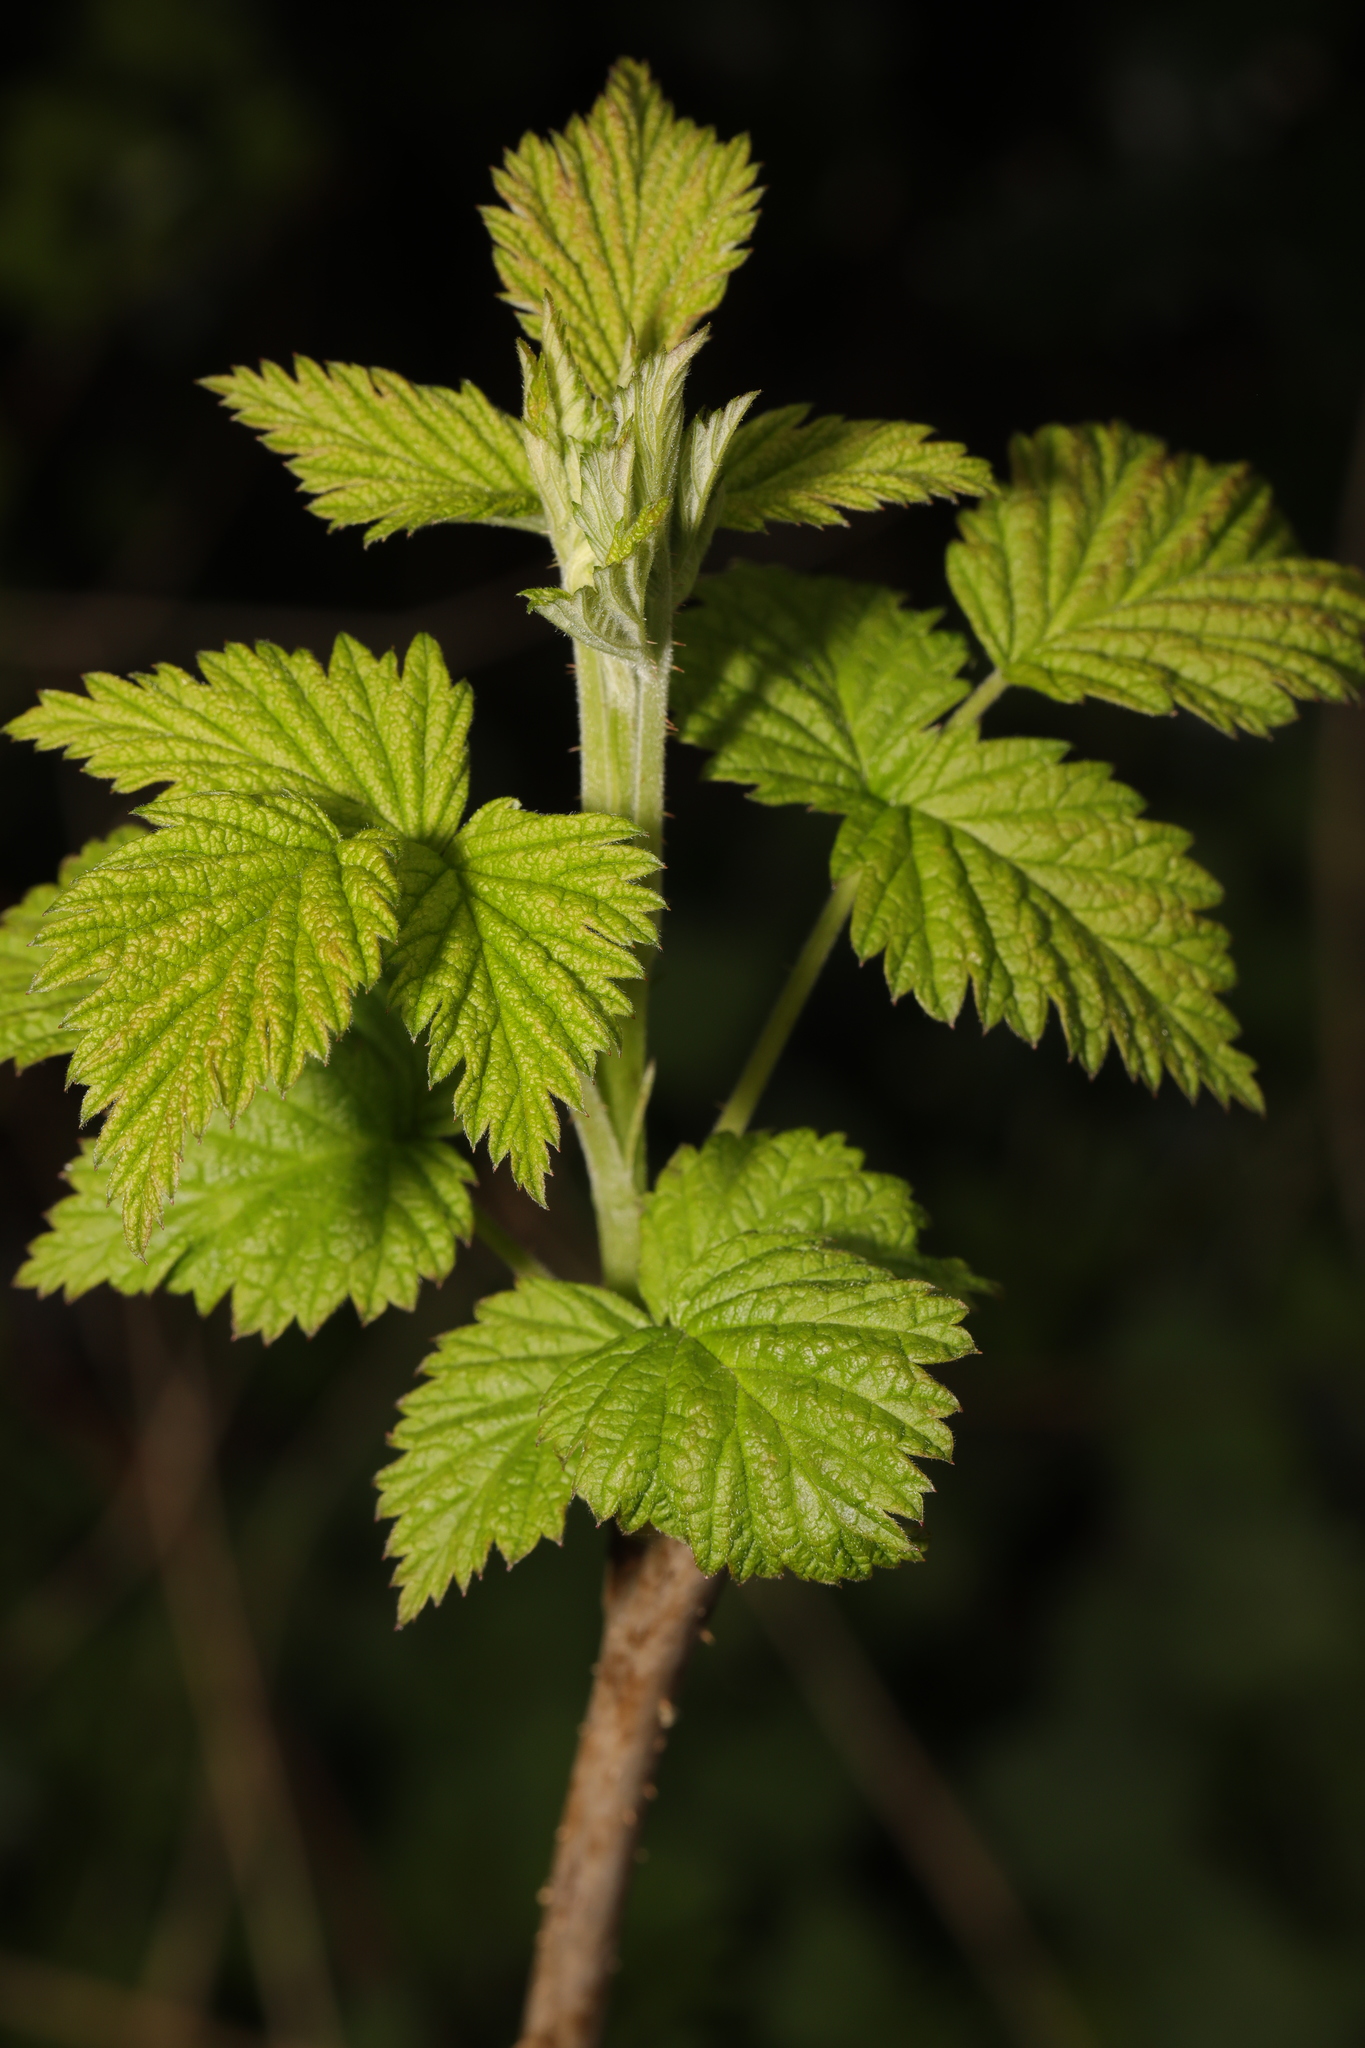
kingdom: Plantae
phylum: Tracheophyta
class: Magnoliopsida
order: Rosales
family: Rosaceae
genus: Rubus
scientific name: Rubus idaeus
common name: Raspberry
